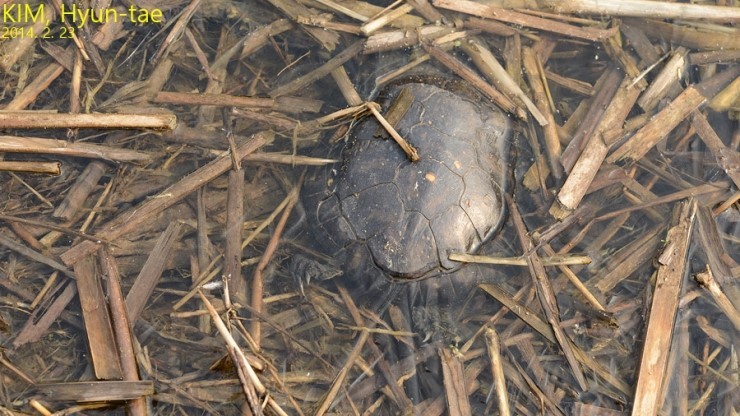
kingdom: Animalia
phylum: Chordata
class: Testudines
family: Emydidae
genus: Trachemys
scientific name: Trachemys scripta
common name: Slider
